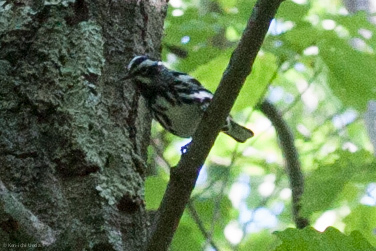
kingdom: Animalia
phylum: Chordata
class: Aves
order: Passeriformes
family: Parulidae
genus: Mniotilta
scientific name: Mniotilta varia
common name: Black-and-white warbler
